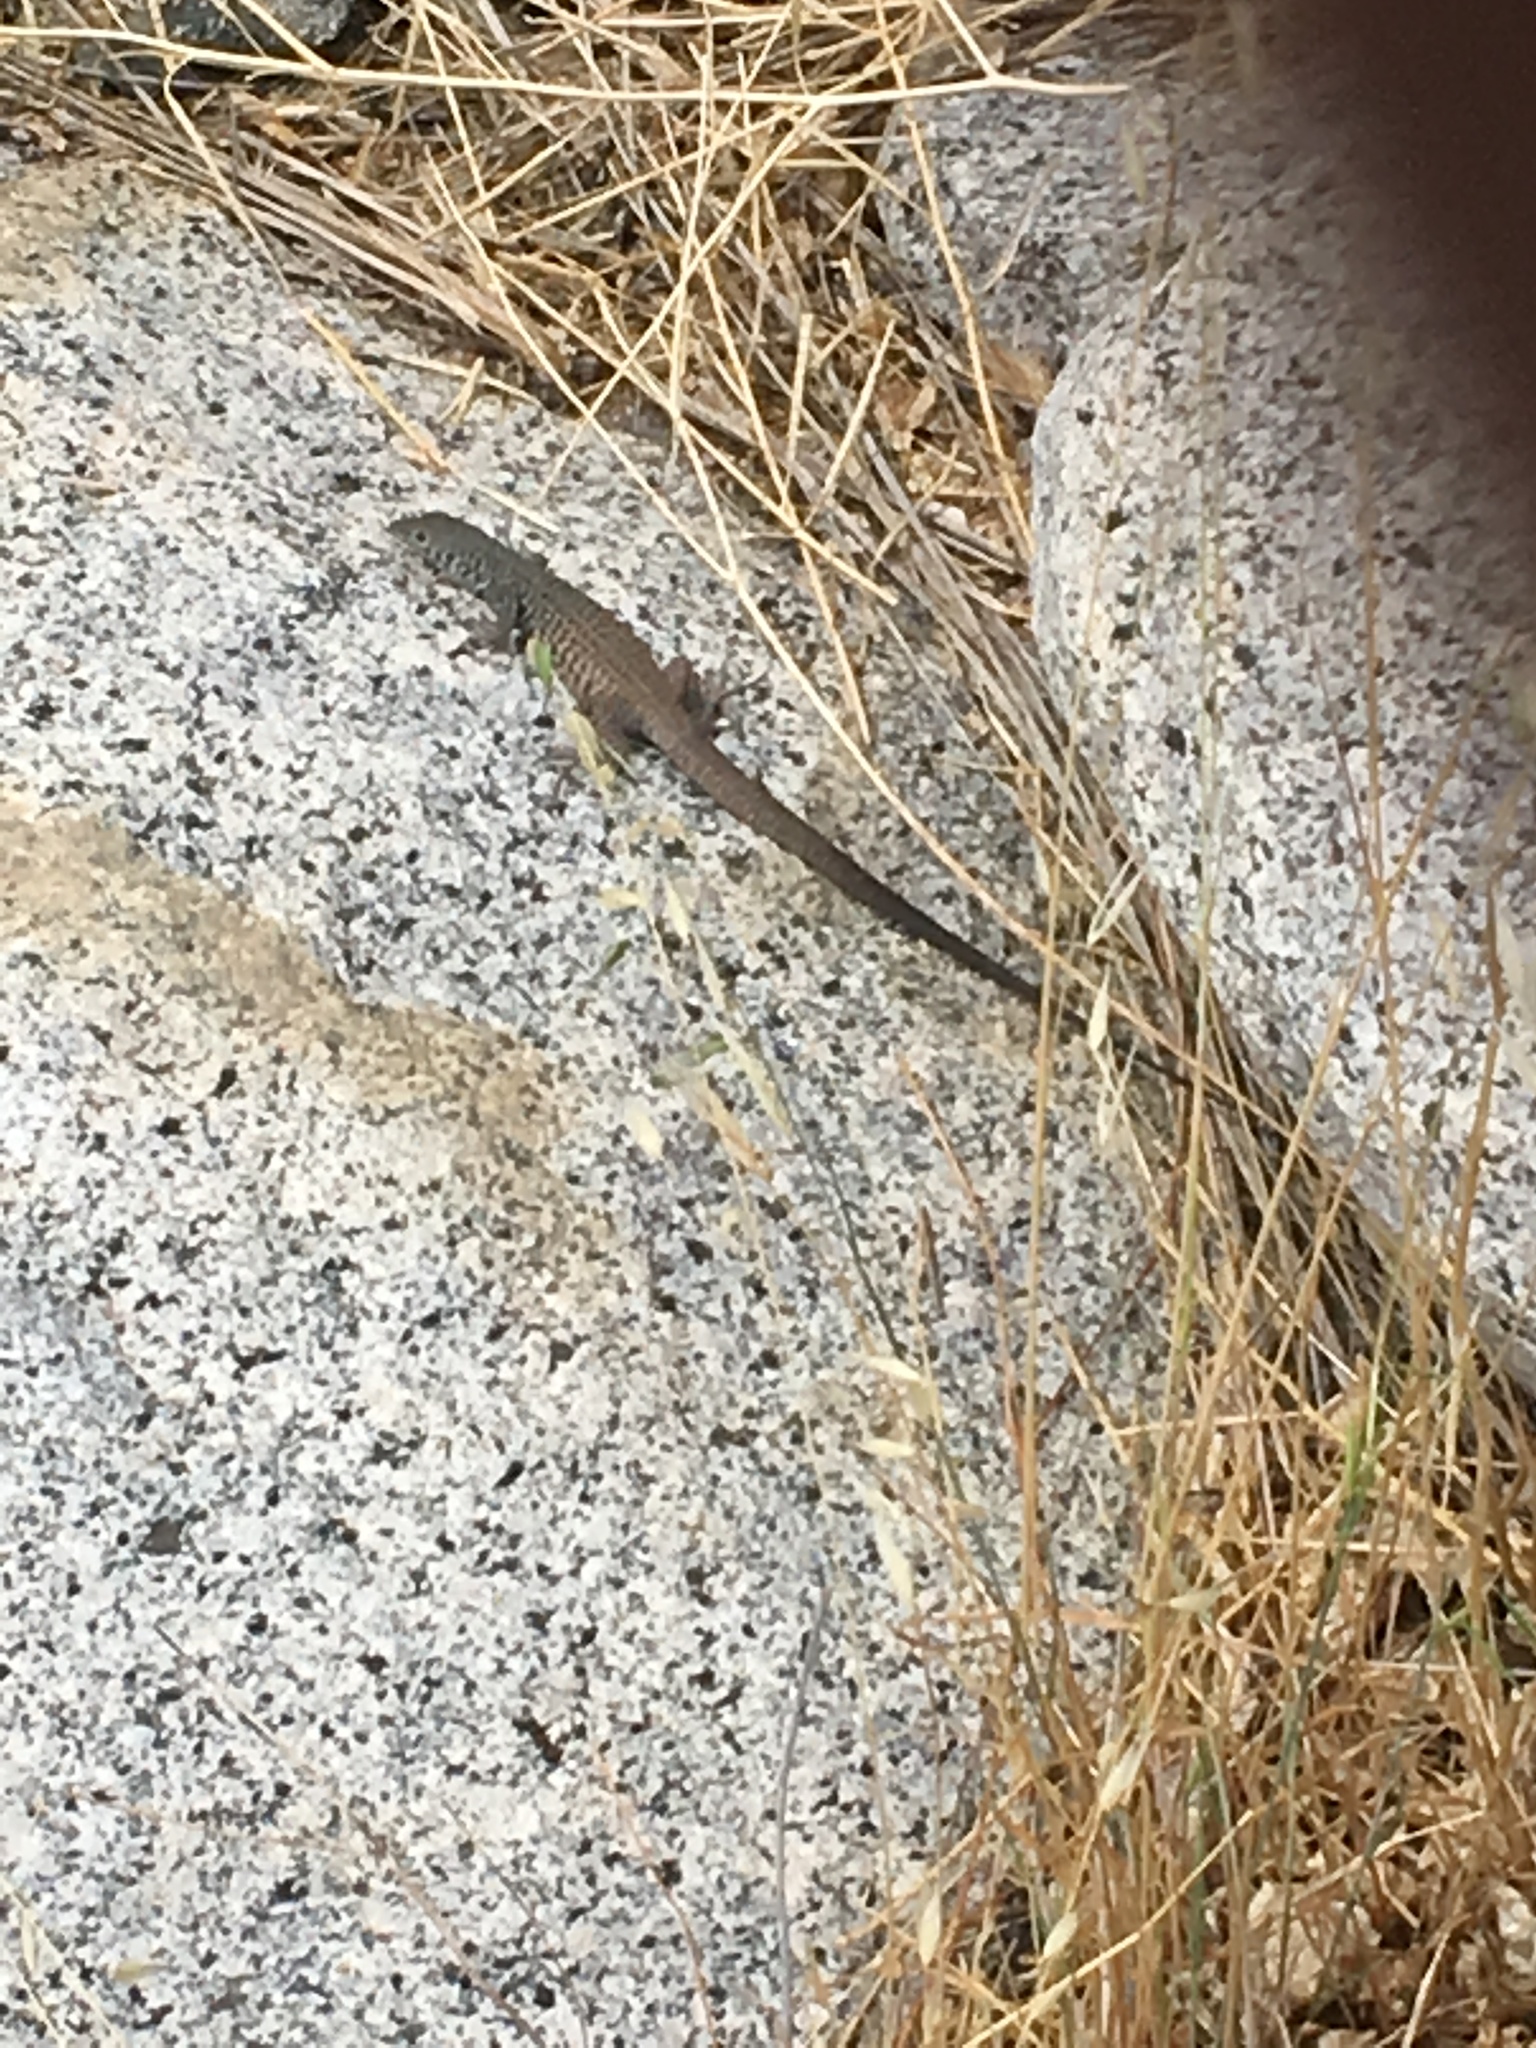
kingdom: Animalia
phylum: Chordata
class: Squamata
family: Teiidae
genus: Aspidoscelis
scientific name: Aspidoscelis tigris
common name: Tiger whiptail
